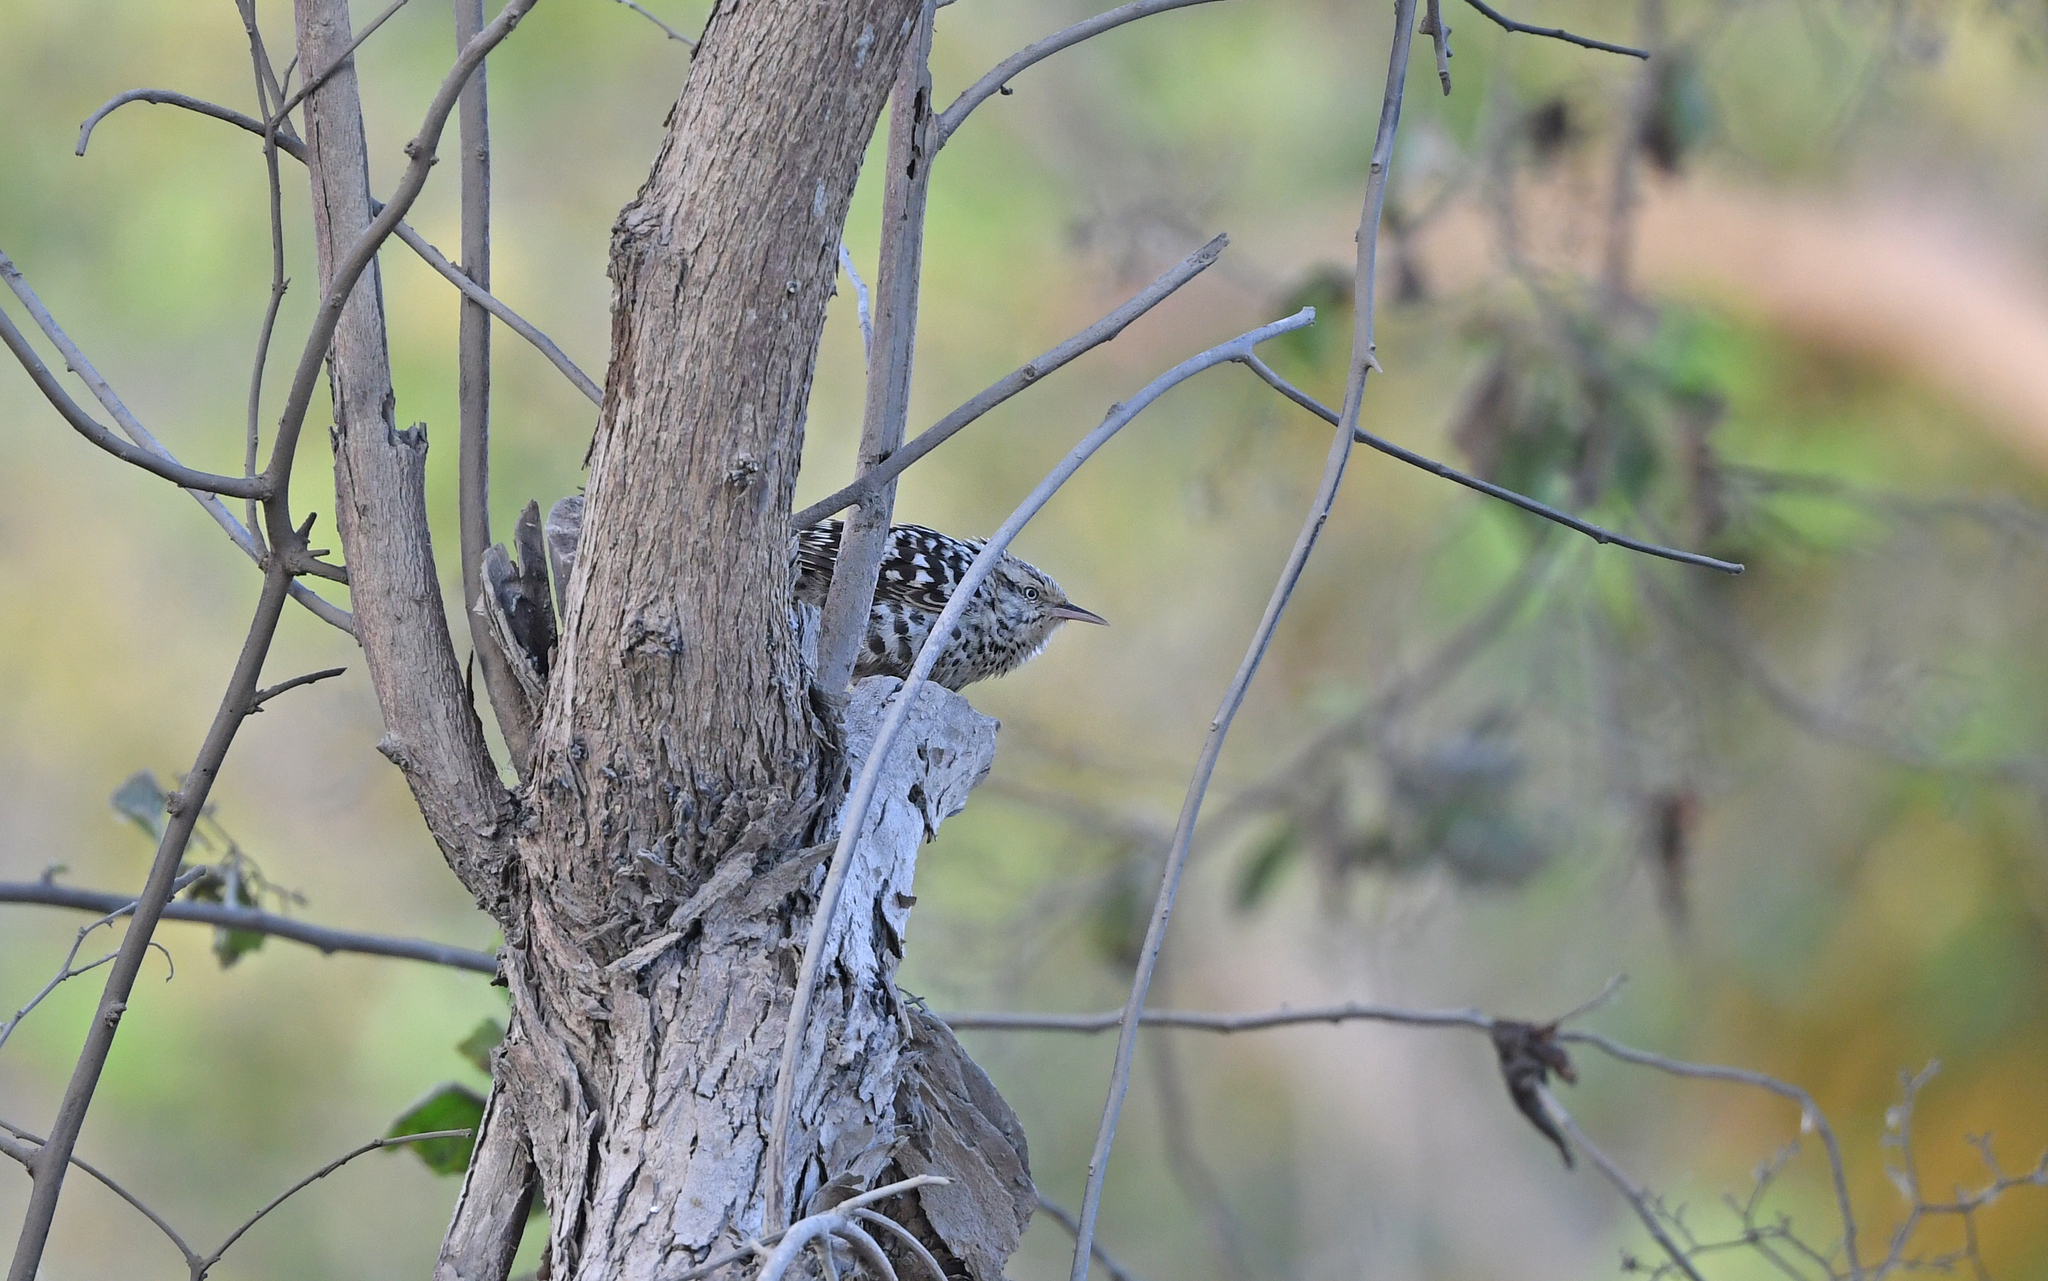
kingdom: Animalia
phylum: Chordata
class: Aves
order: Passeriformes
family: Troglodytidae
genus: Campylorhynchus
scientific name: Campylorhynchus nuchalis
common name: Stripe-backed wren
